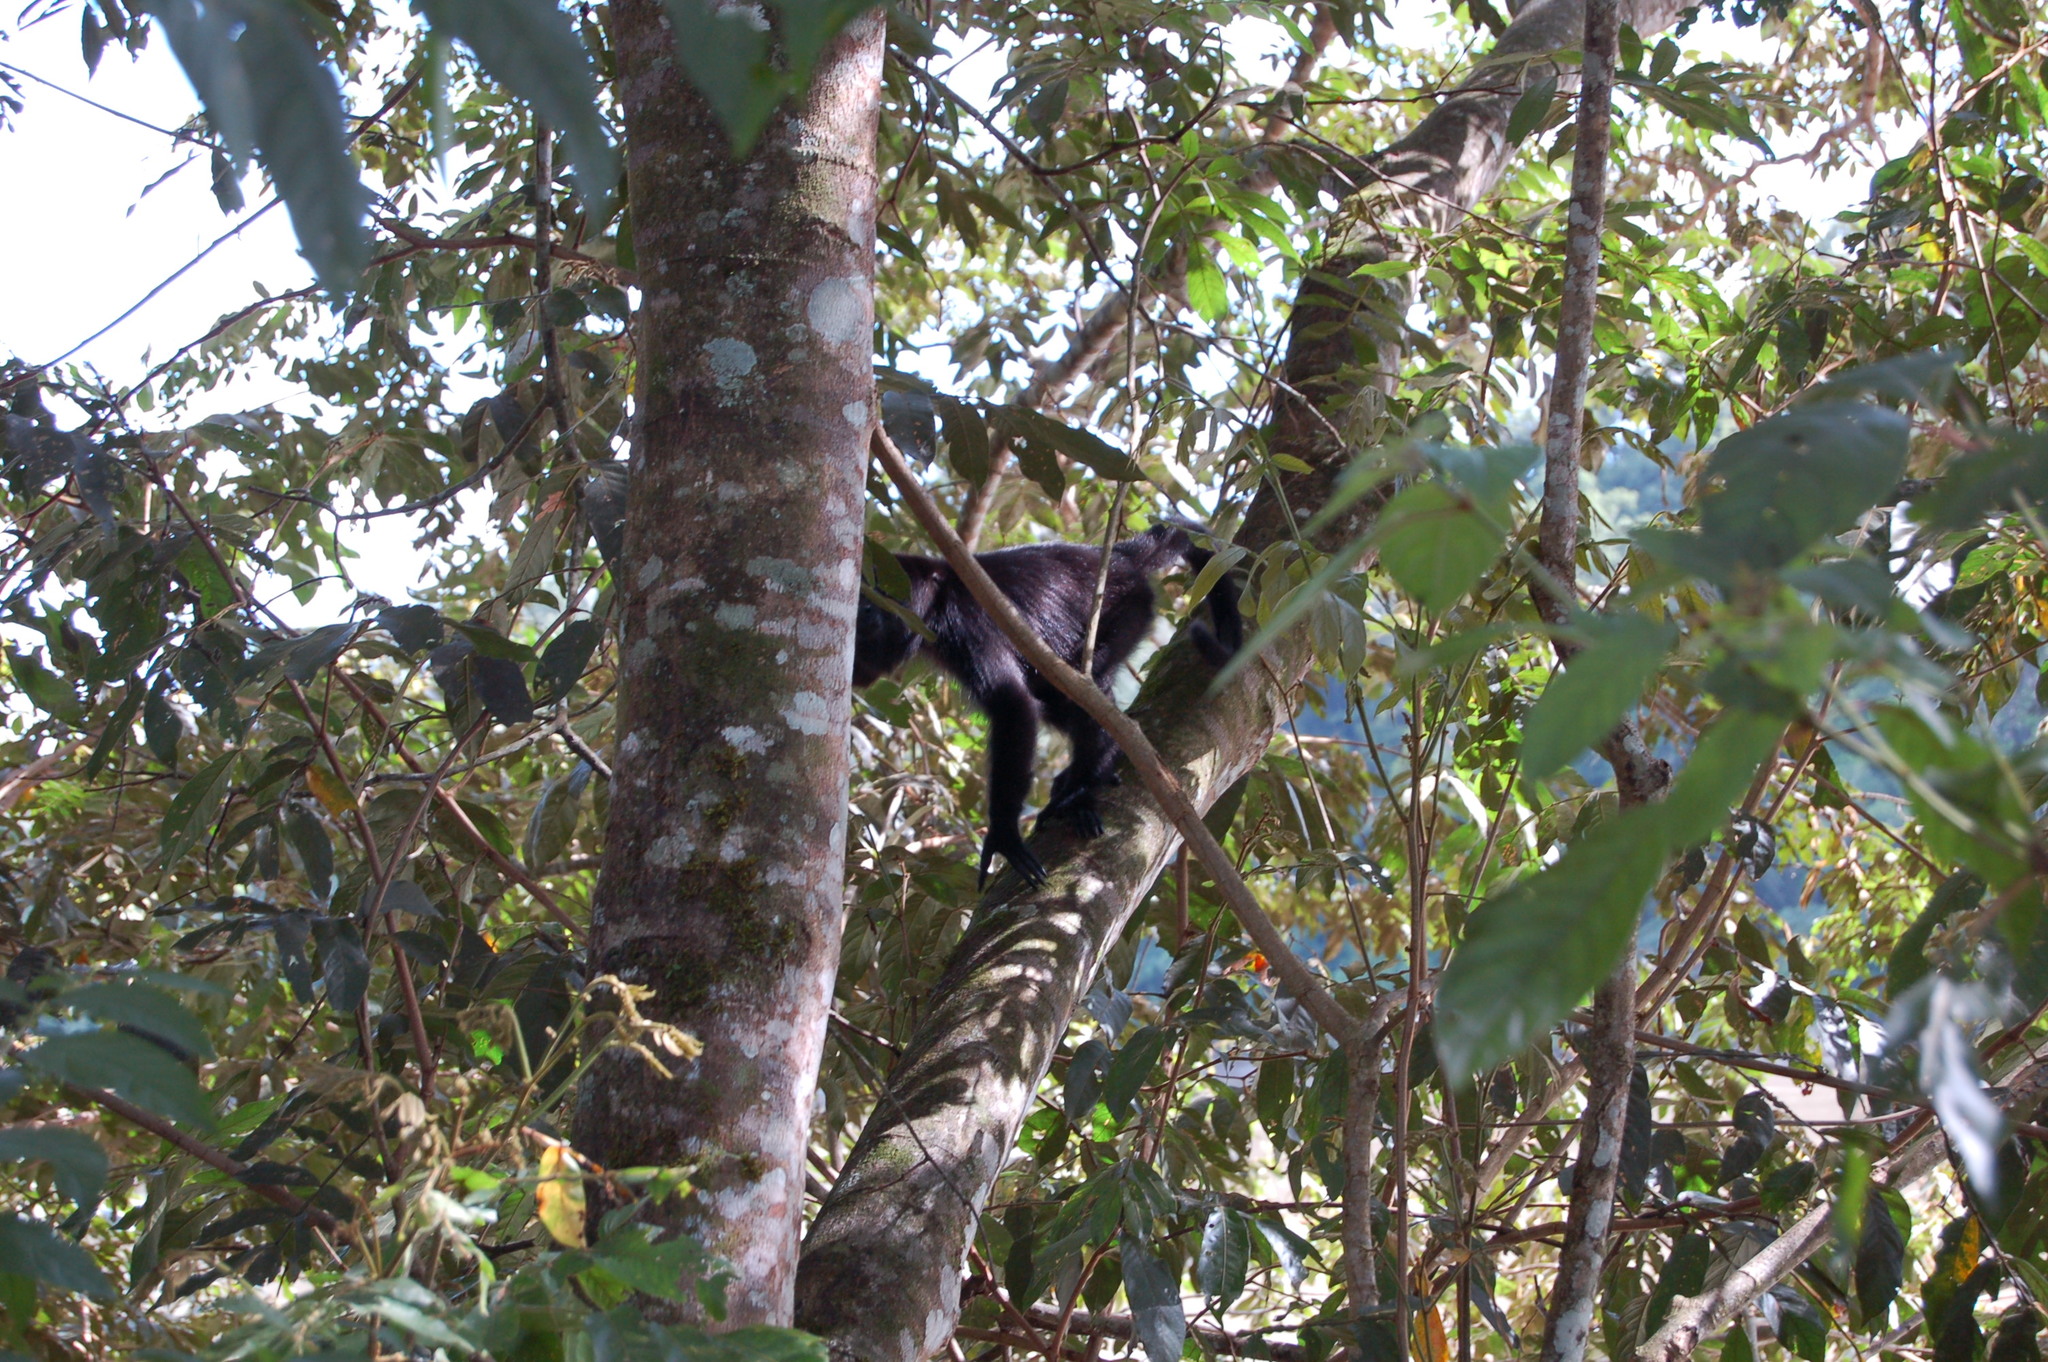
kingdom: Animalia
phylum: Chordata
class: Mammalia
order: Primates
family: Atelidae
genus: Ateles
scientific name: Ateles geoffroyi
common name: Black-handed spider monkey
